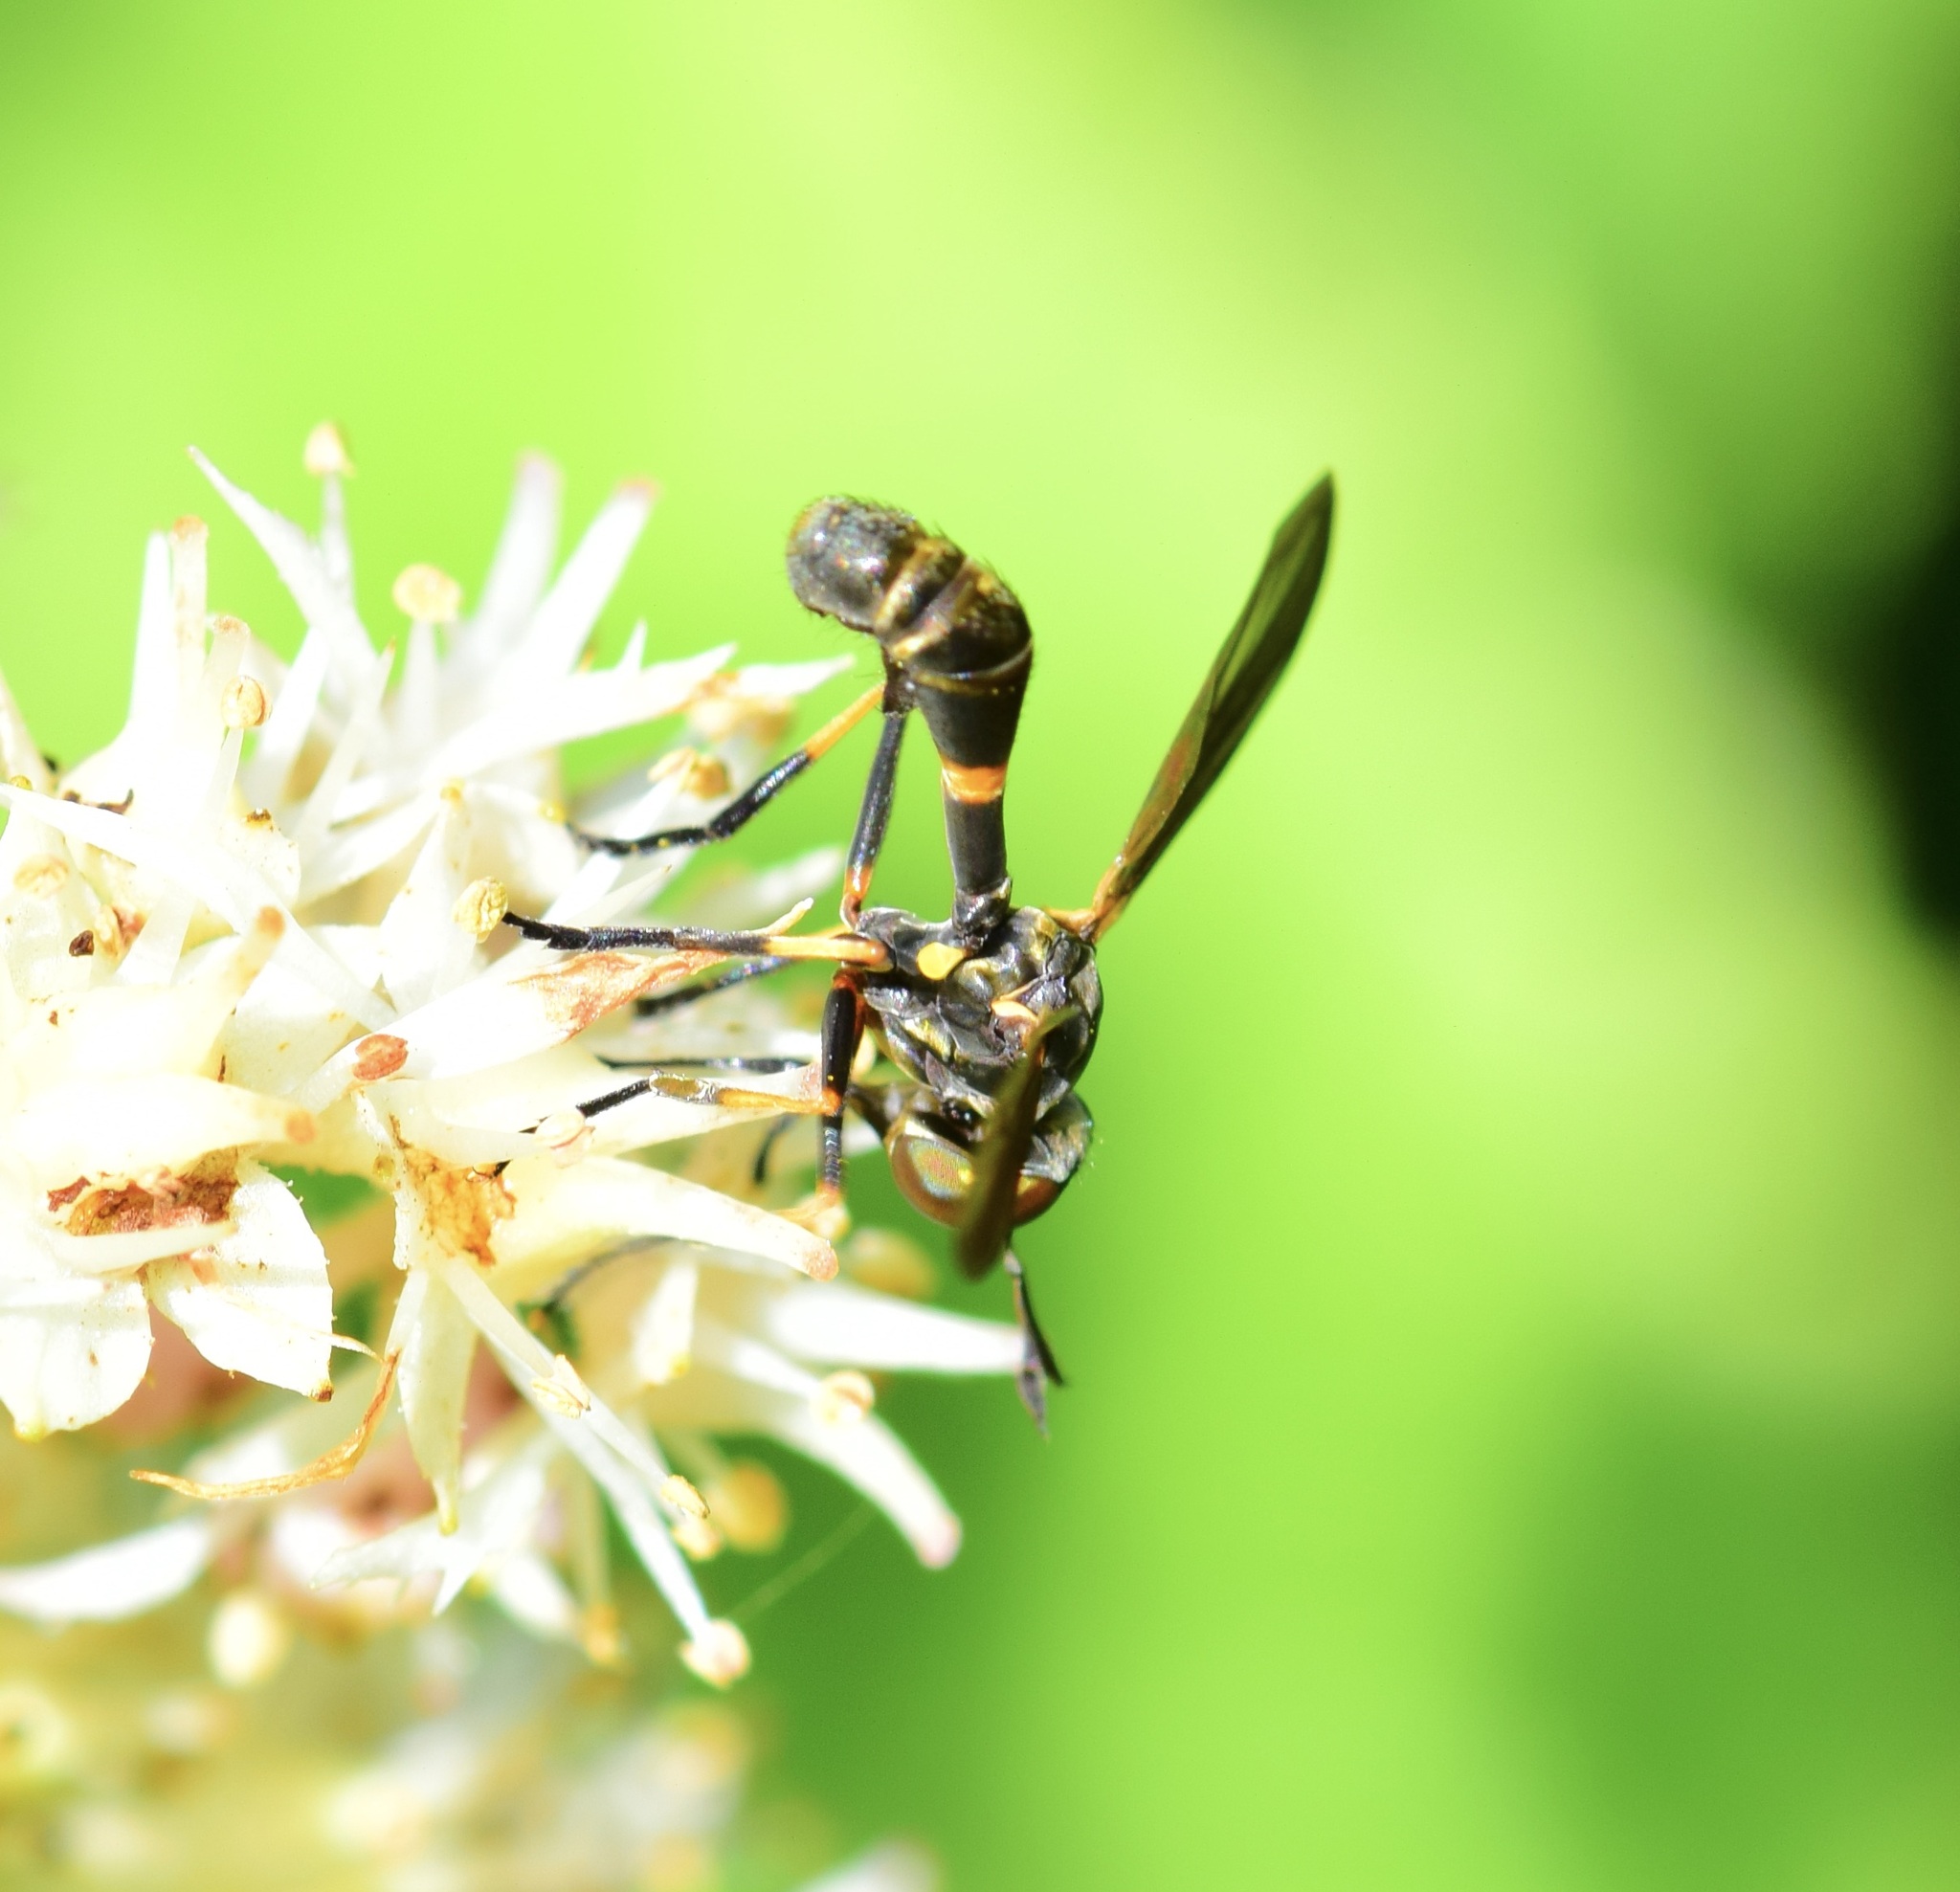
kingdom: Animalia
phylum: Arthropoda
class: Insecta
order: Diptera
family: Conopidae
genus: Physoconops
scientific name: Physoconops obscuripennis
